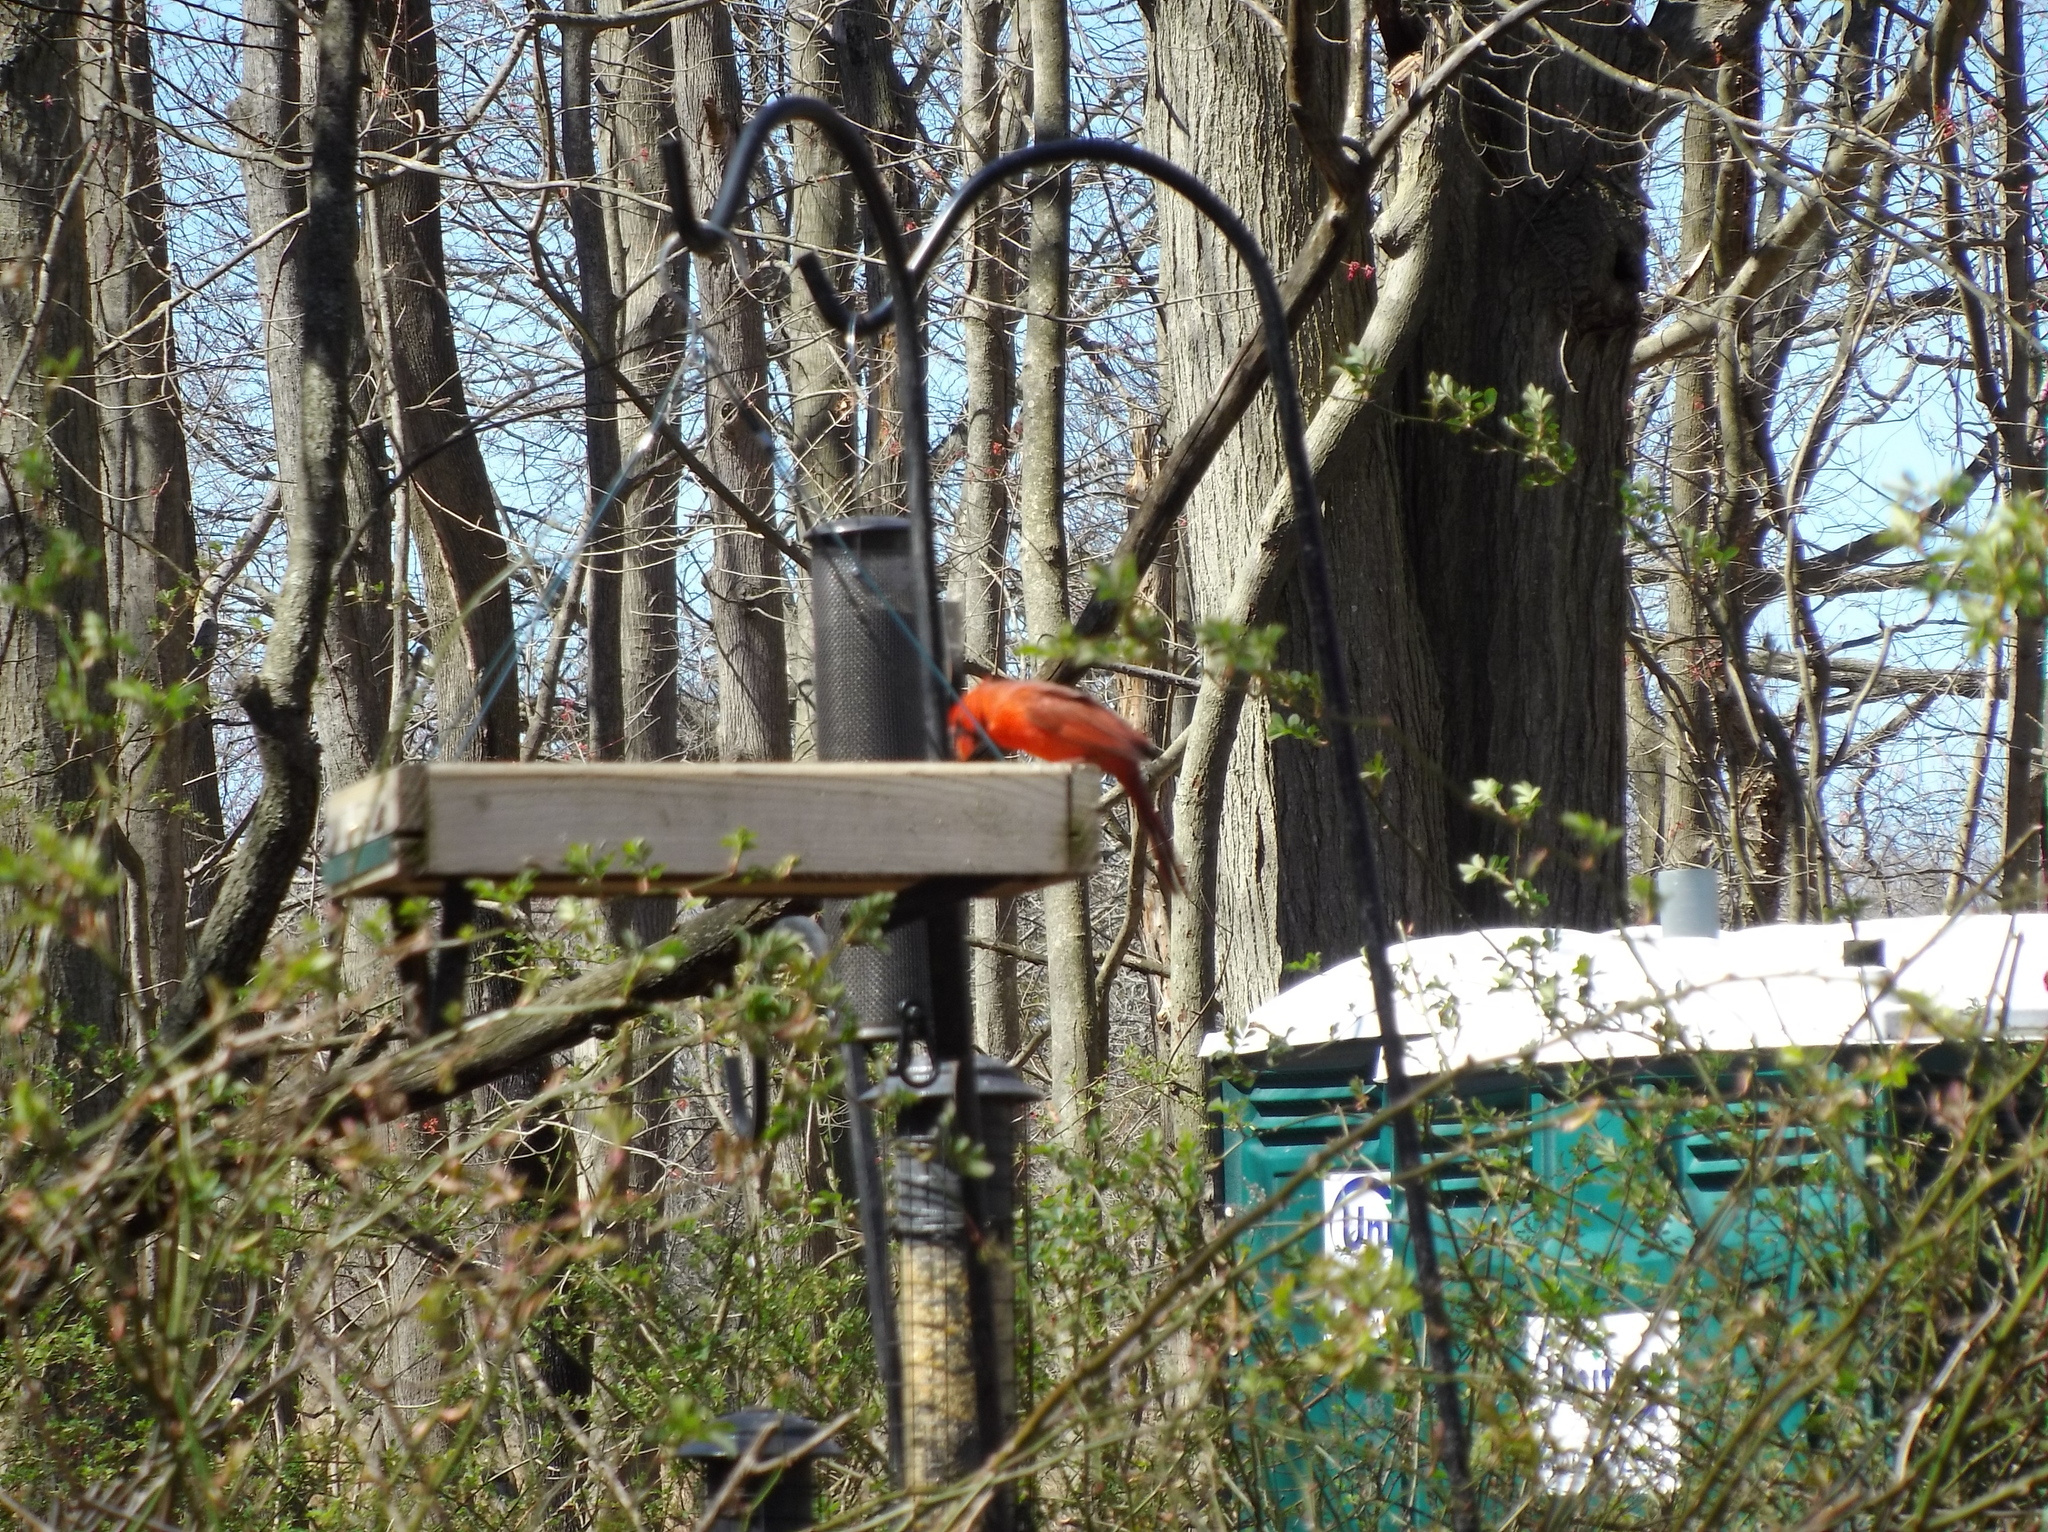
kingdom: Animalia
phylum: Chordata
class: Aves
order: Passeriformes
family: Cardinalidae
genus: Cardinalis
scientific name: Cardinalis cardinalis
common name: Northern cardinal
